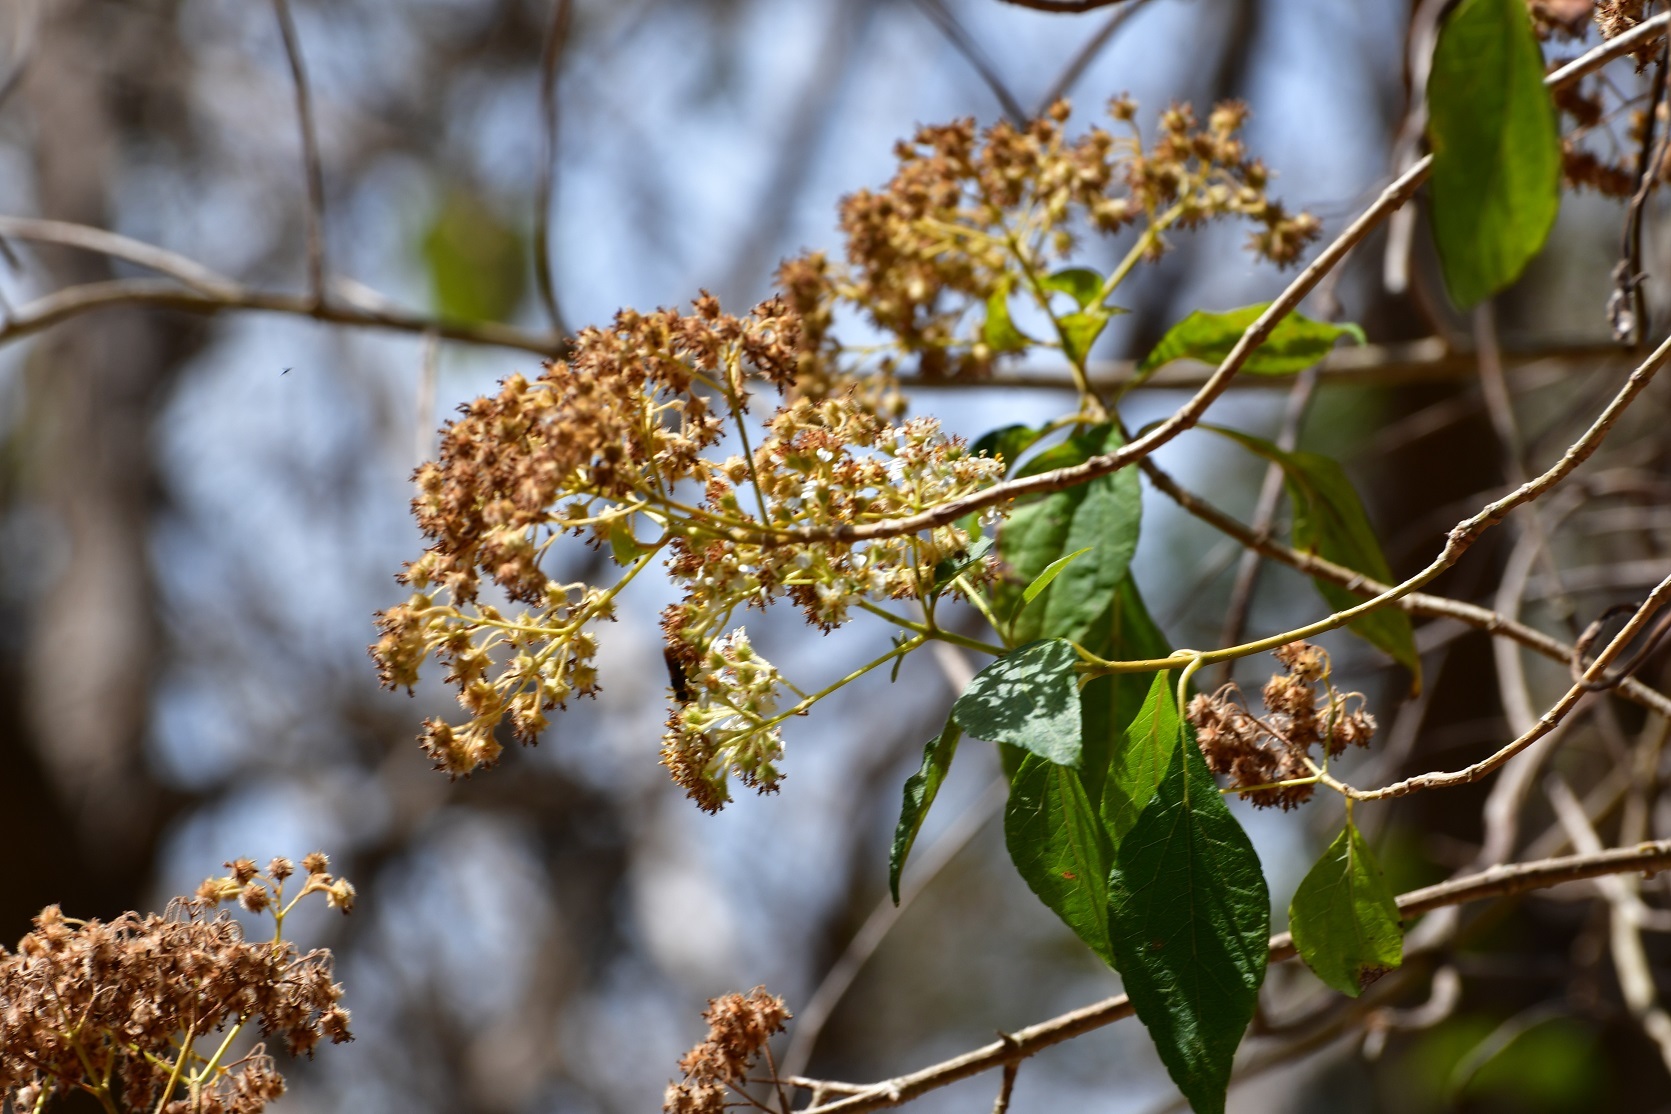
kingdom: Plantae
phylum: Tracheophyta
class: Magnoliopsida
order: Asterales
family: Asteraceae
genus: Montanoa
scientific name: Montanoa tomentosa
